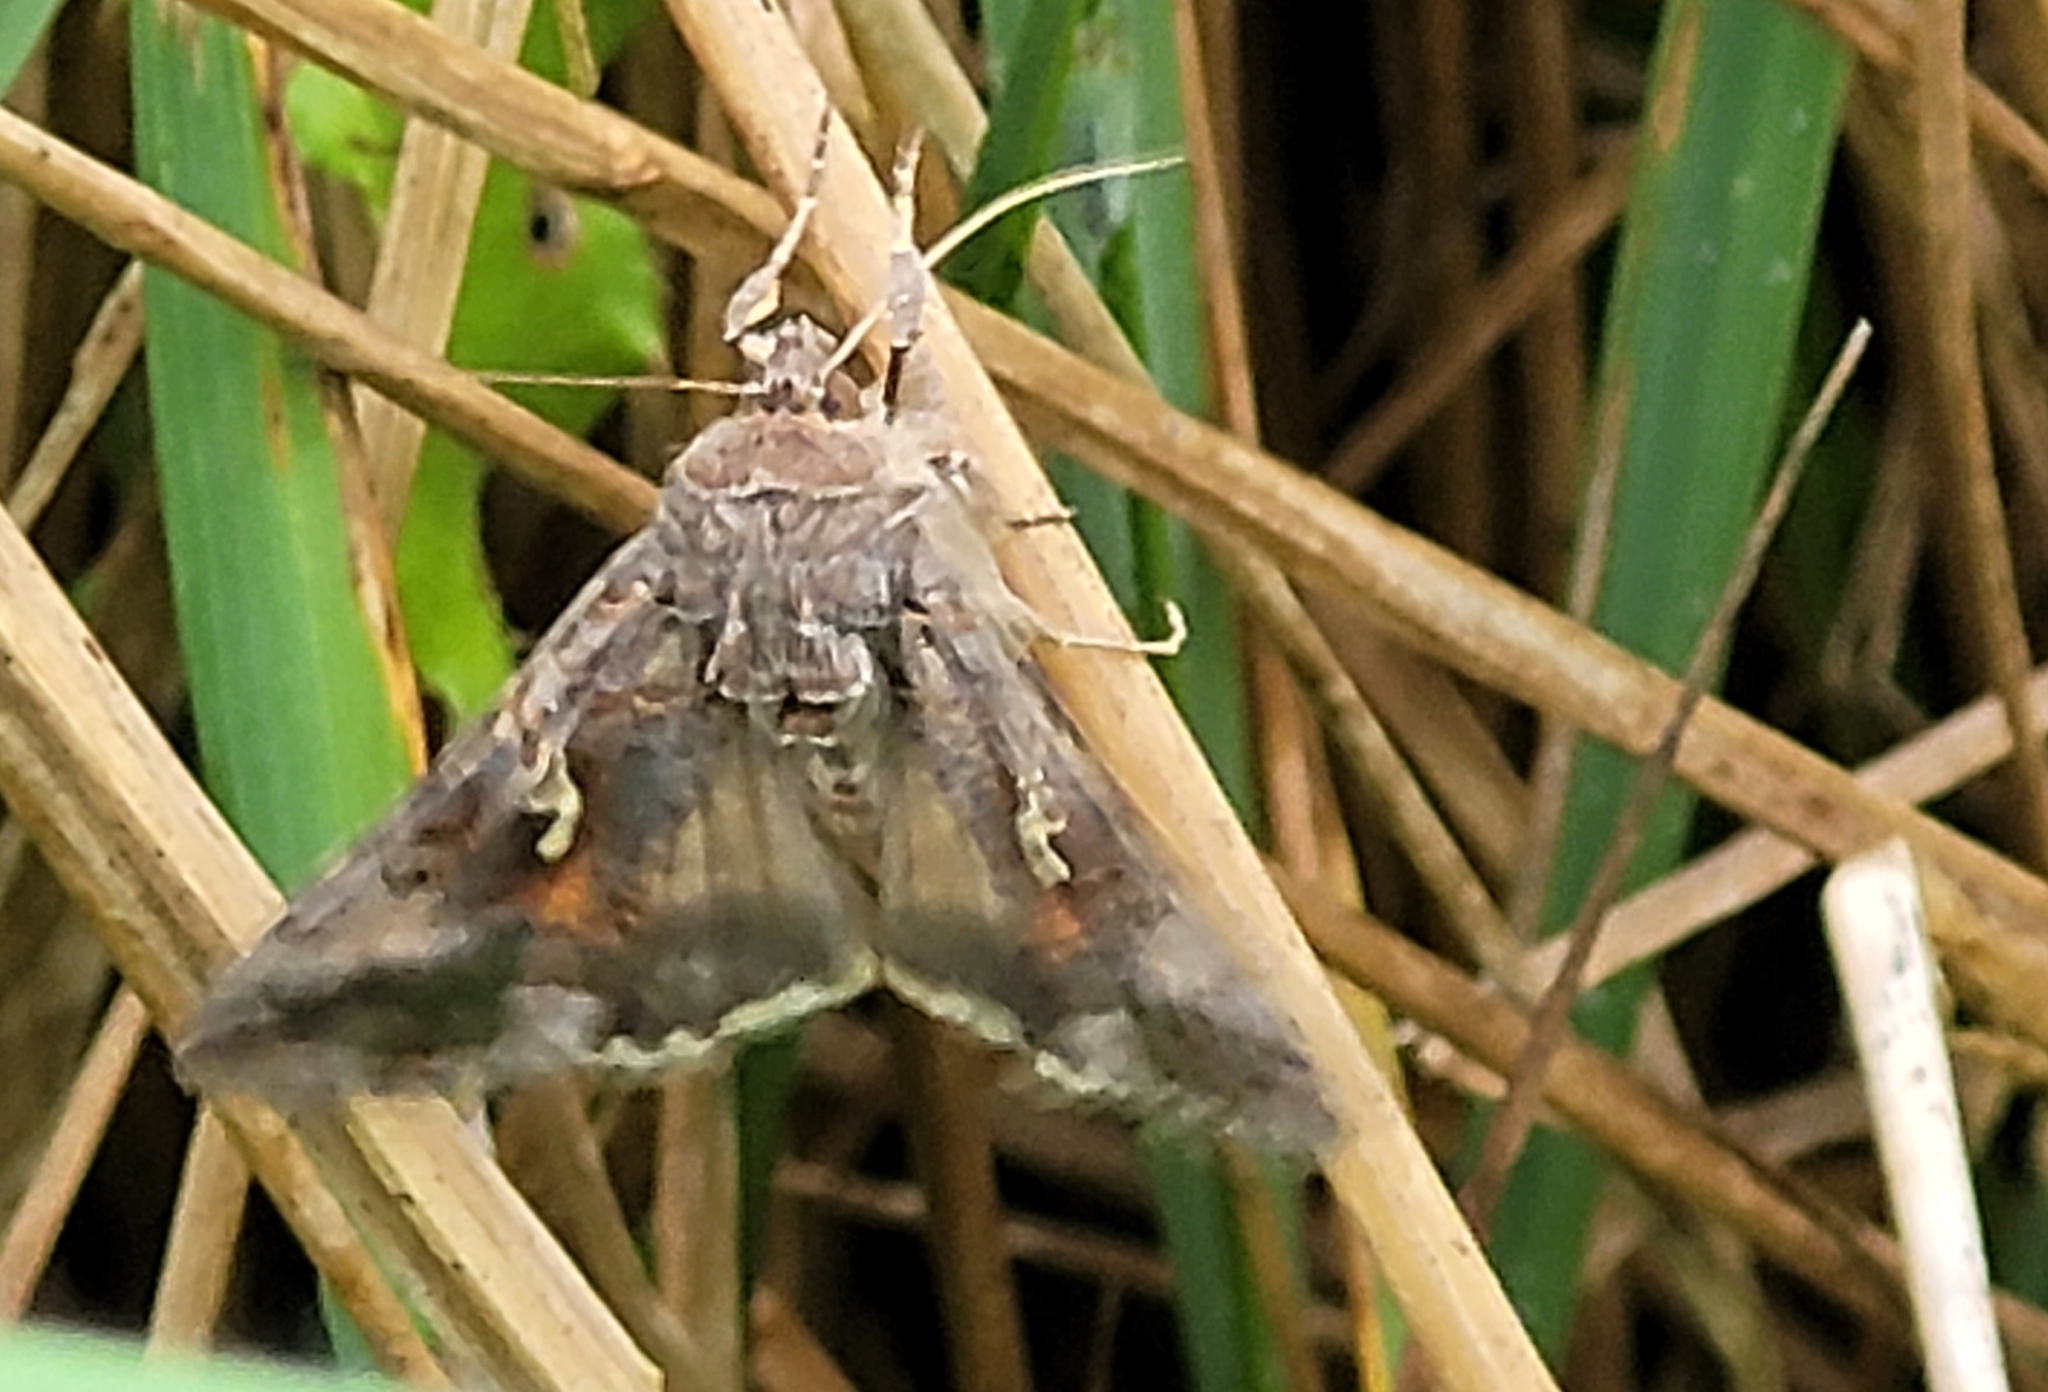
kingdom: Animalia
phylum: Arthropoda
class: Insecta
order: Lepidoptera
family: Noctuidae
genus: Autographa
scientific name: Autographa gamma
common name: Silver y
